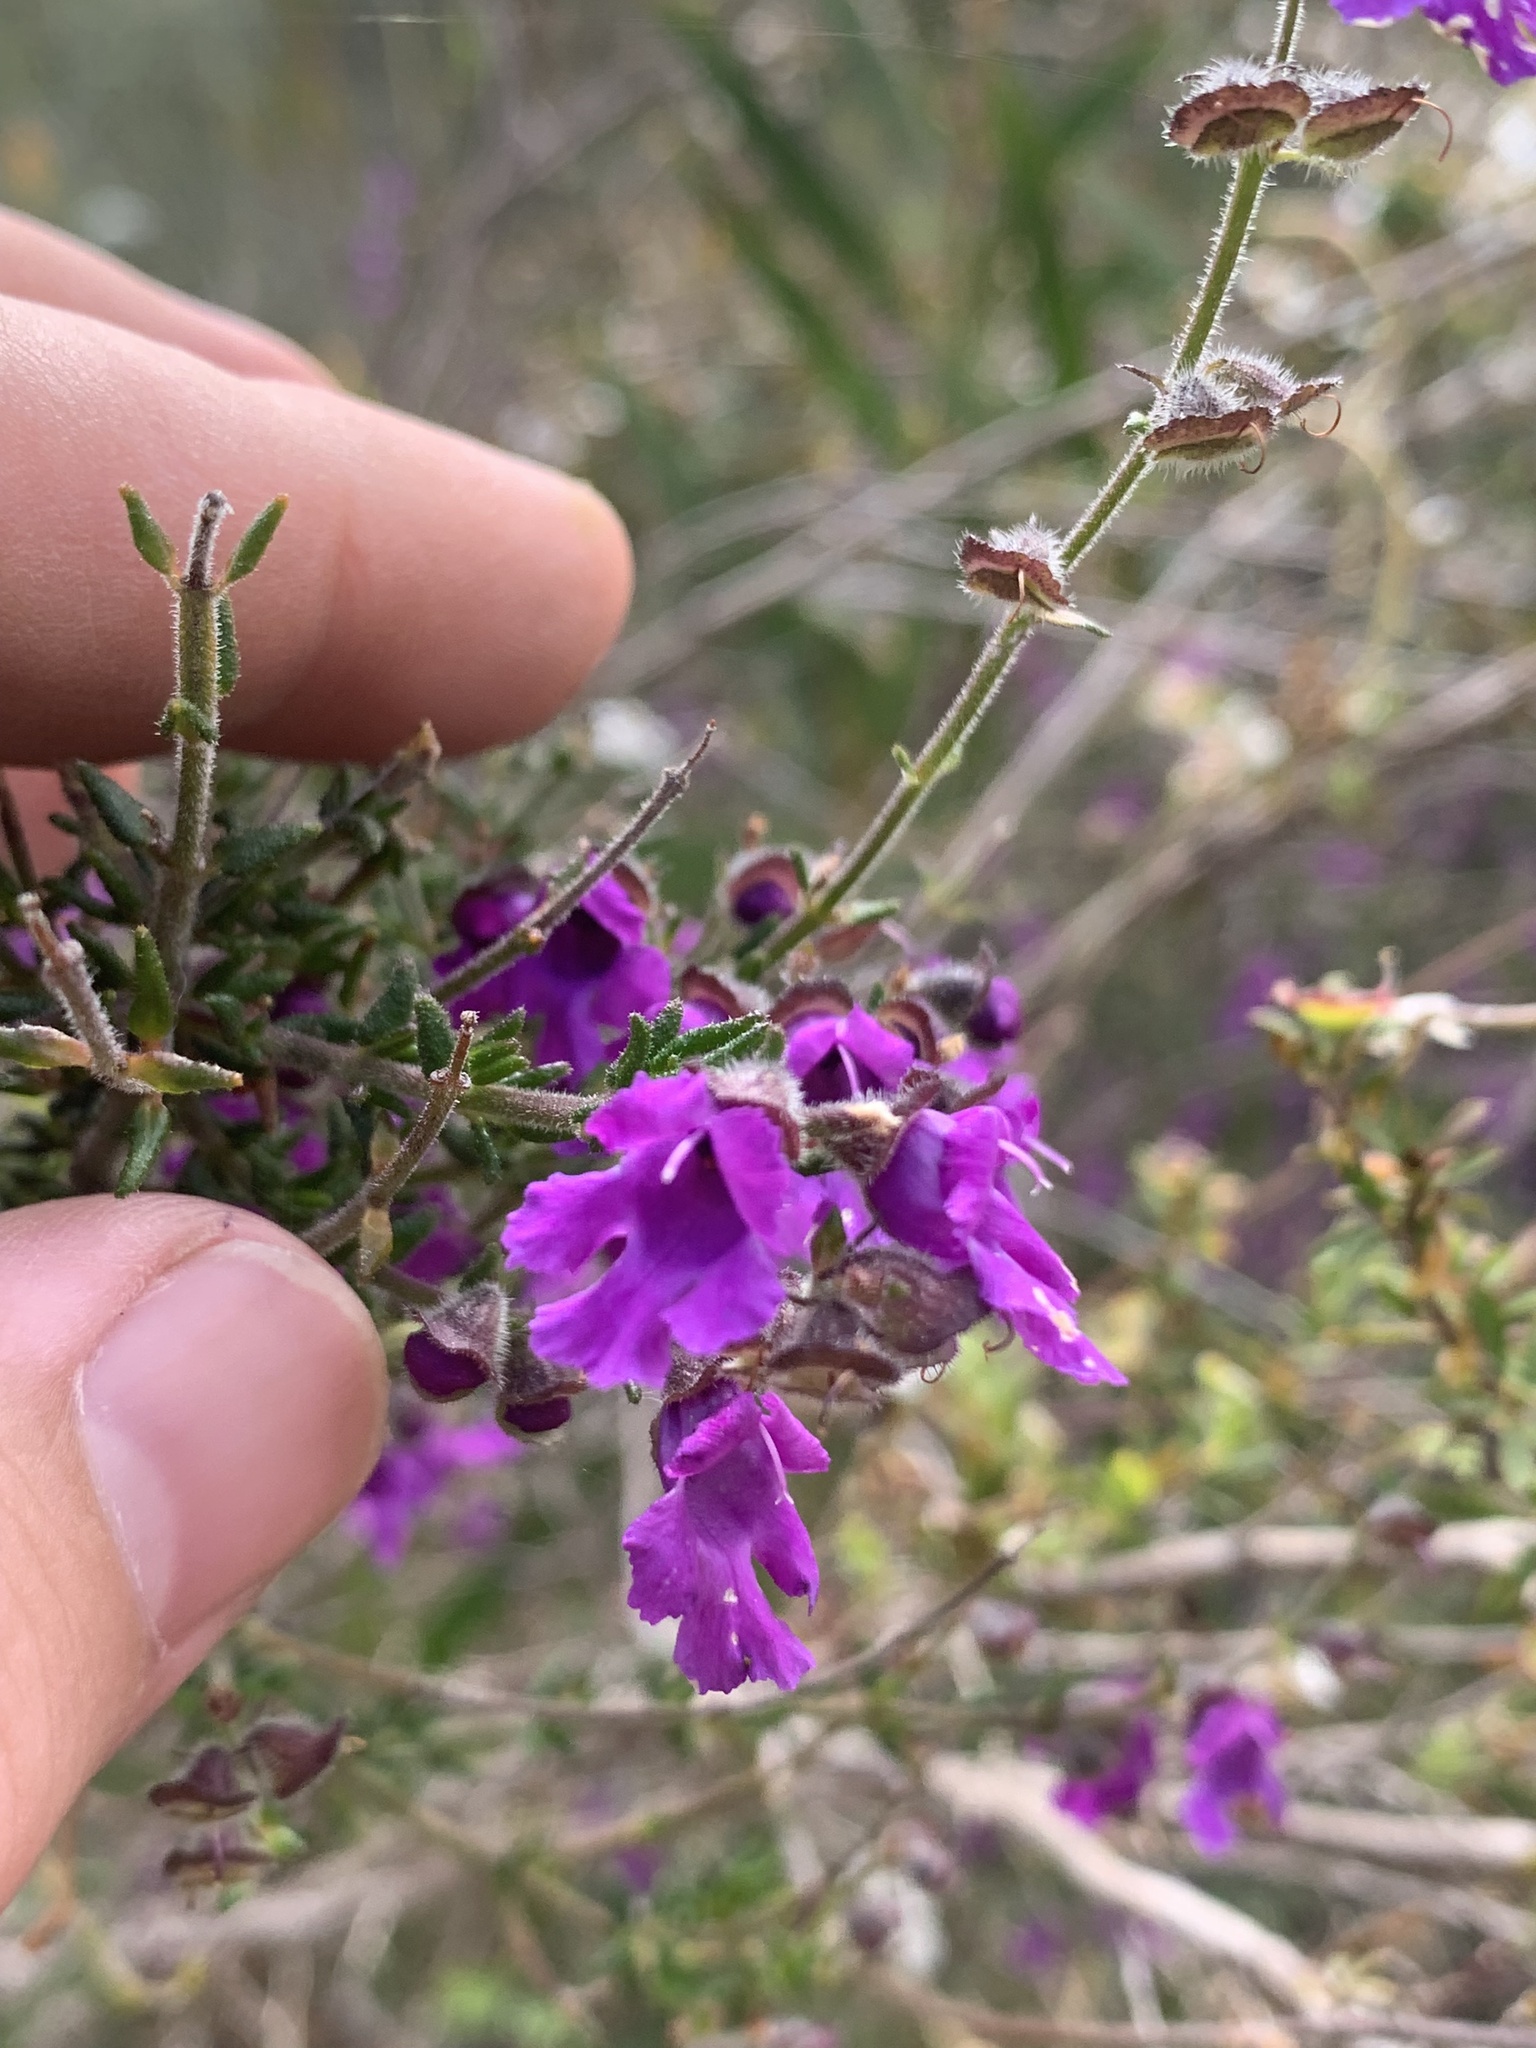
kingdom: Plantae
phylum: Tracheophyta
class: Magnoliopsida
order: Lamiales
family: Lamiaceae
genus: Prostanthera
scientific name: Prostanthera hirtula
